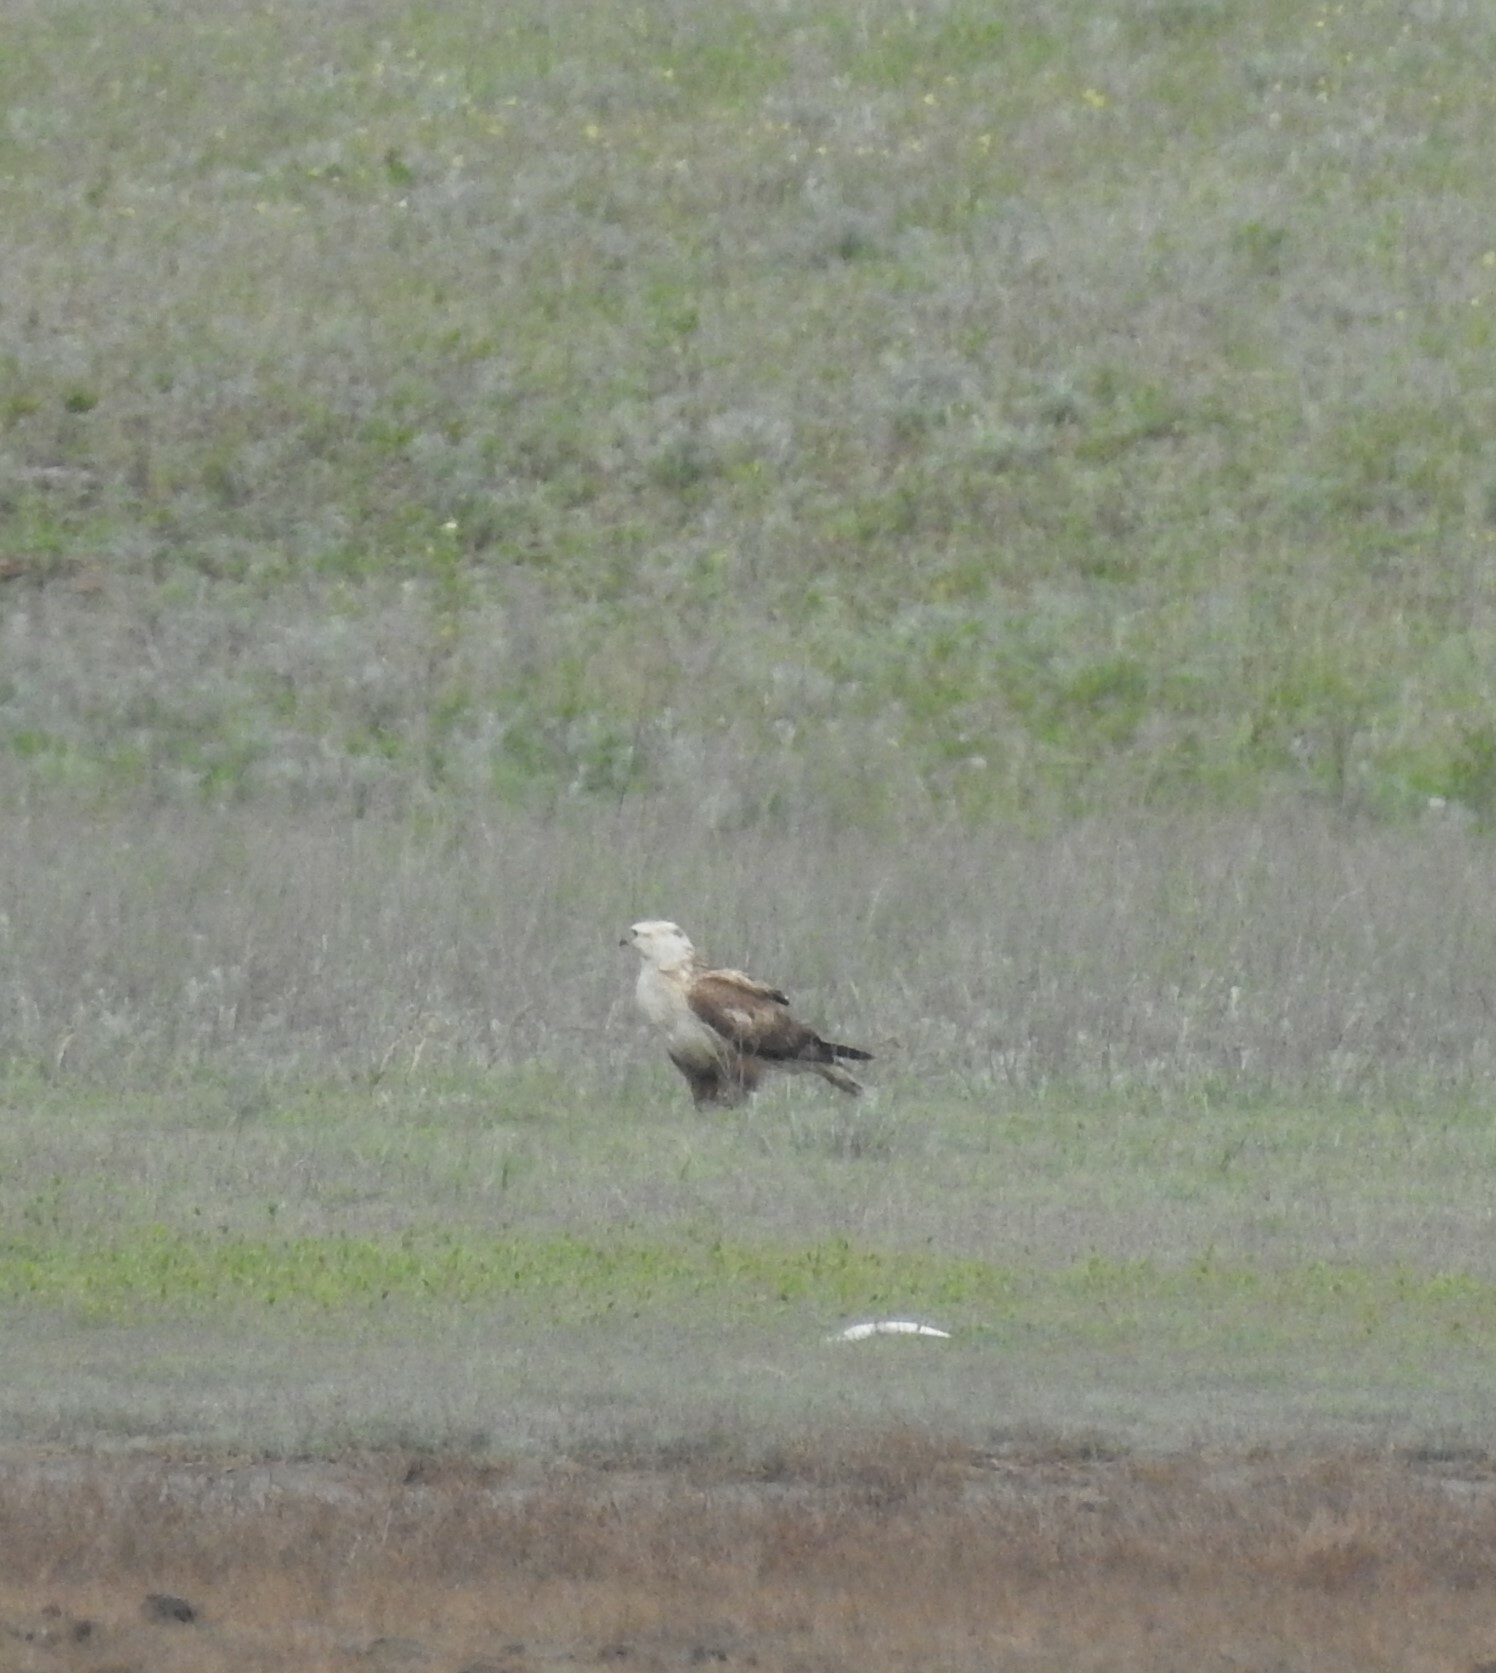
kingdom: Animalia
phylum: Chordata
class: Aves
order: Accipitriformes
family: Accipitridae
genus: Buteo
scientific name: Buteo rufinus
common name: Long-legged buzzard
